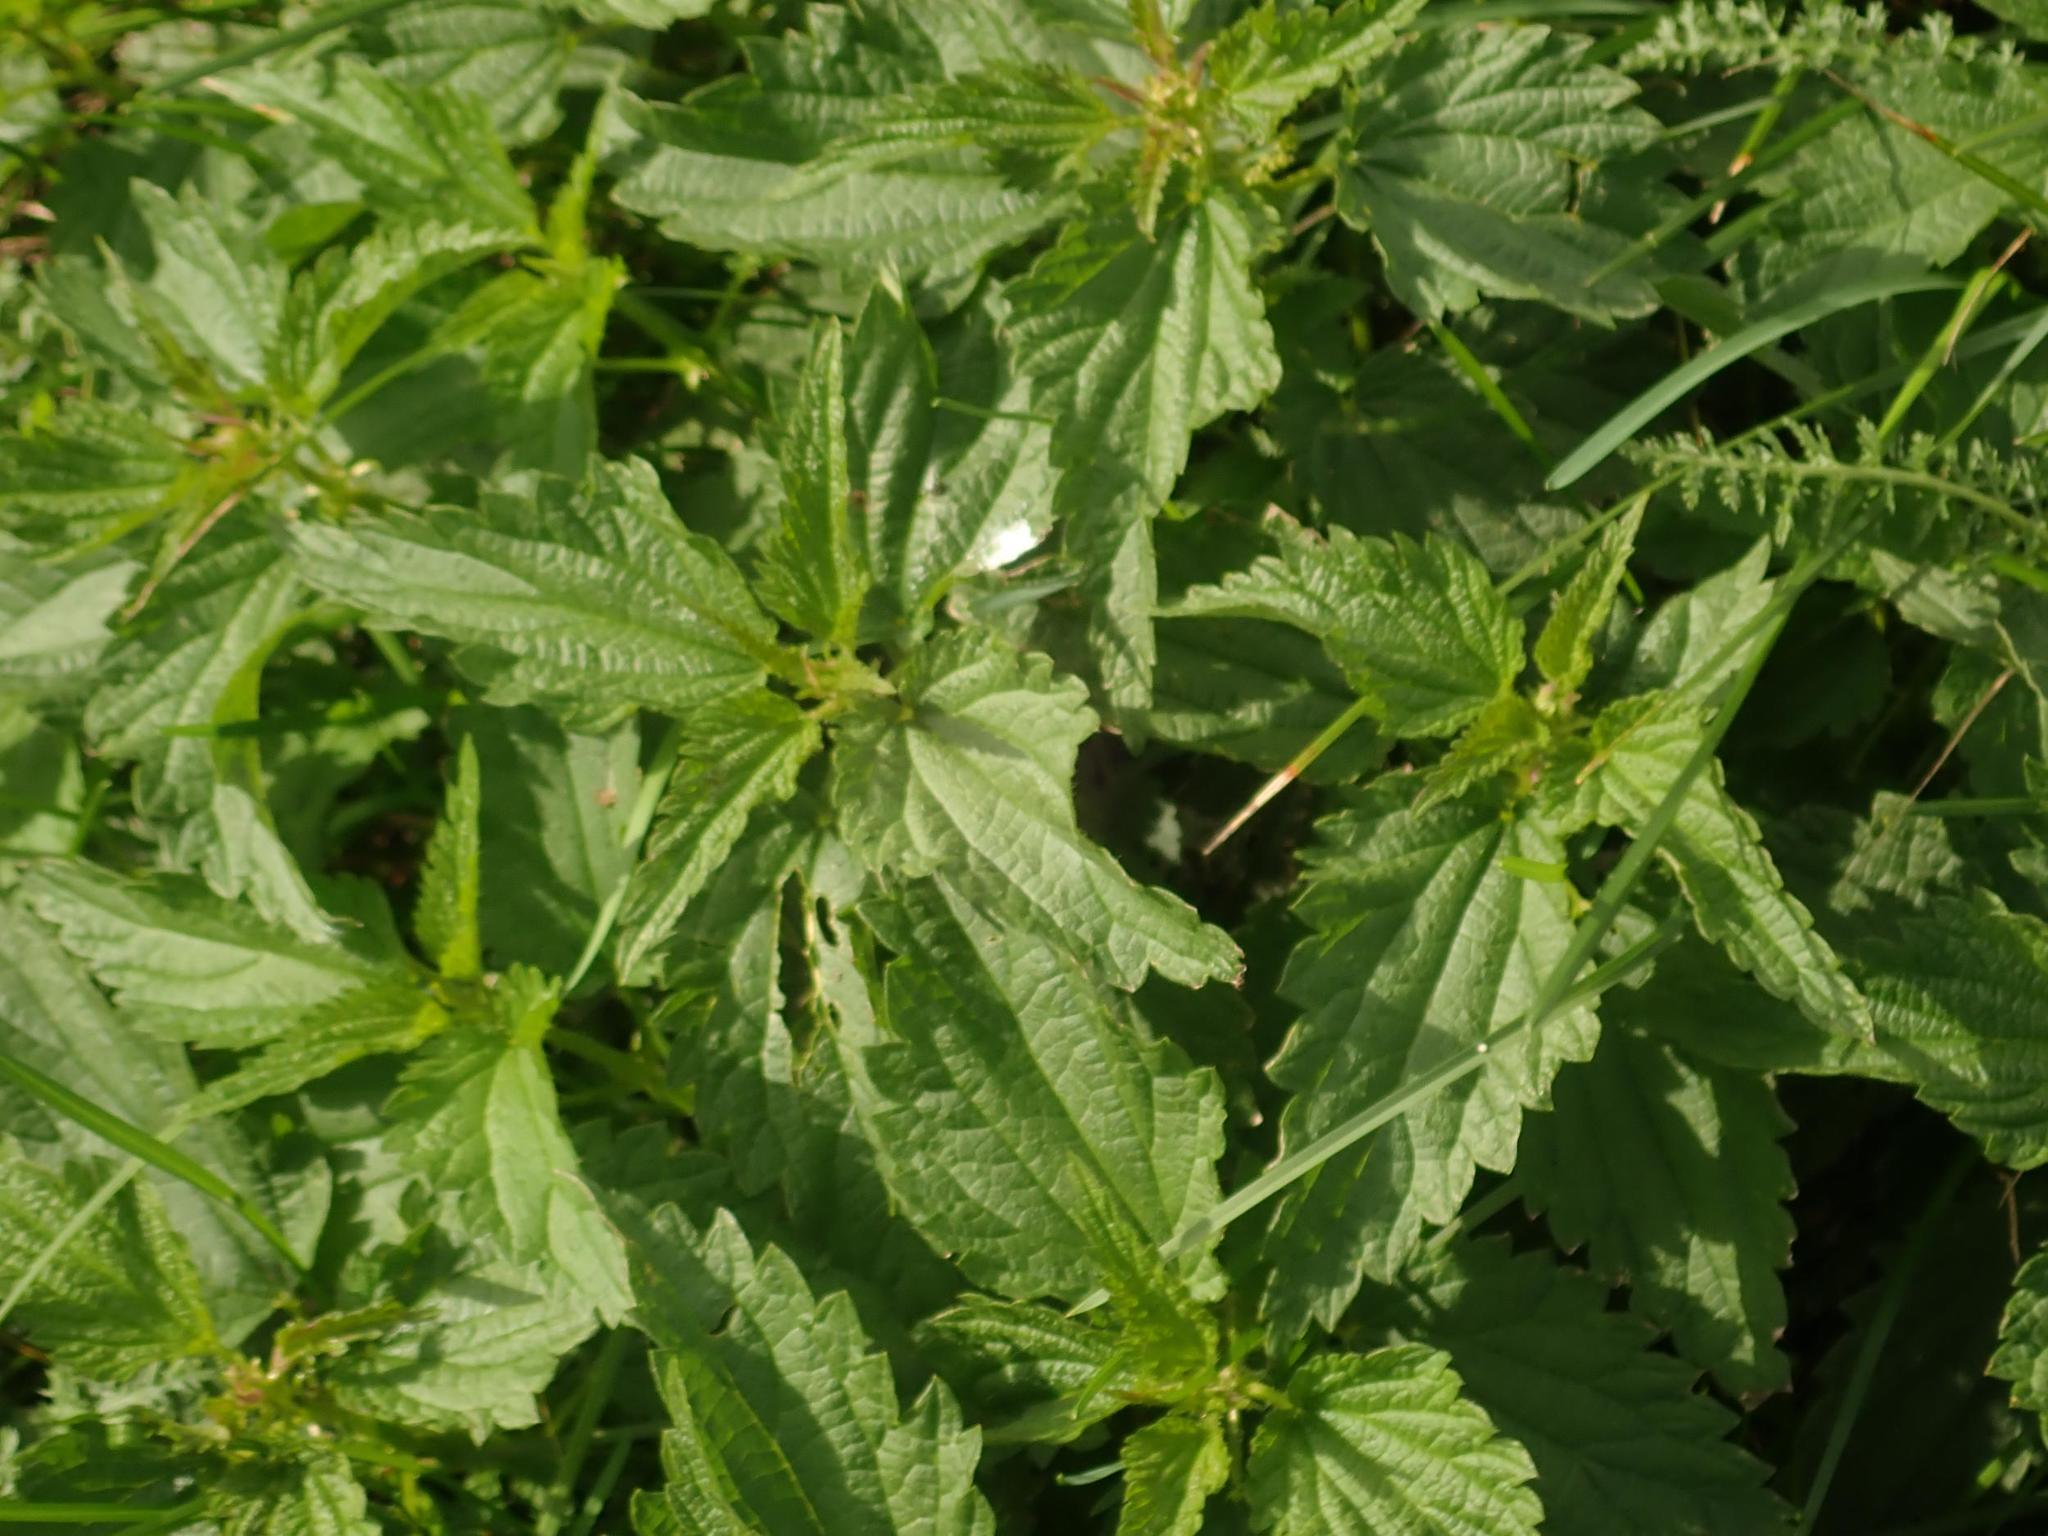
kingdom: Plantae
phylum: Tracheophyta
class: Magnoliopsida
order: Rosales
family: Urticaceae
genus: Urtica
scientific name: Urtica dioica
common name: Common nettle
